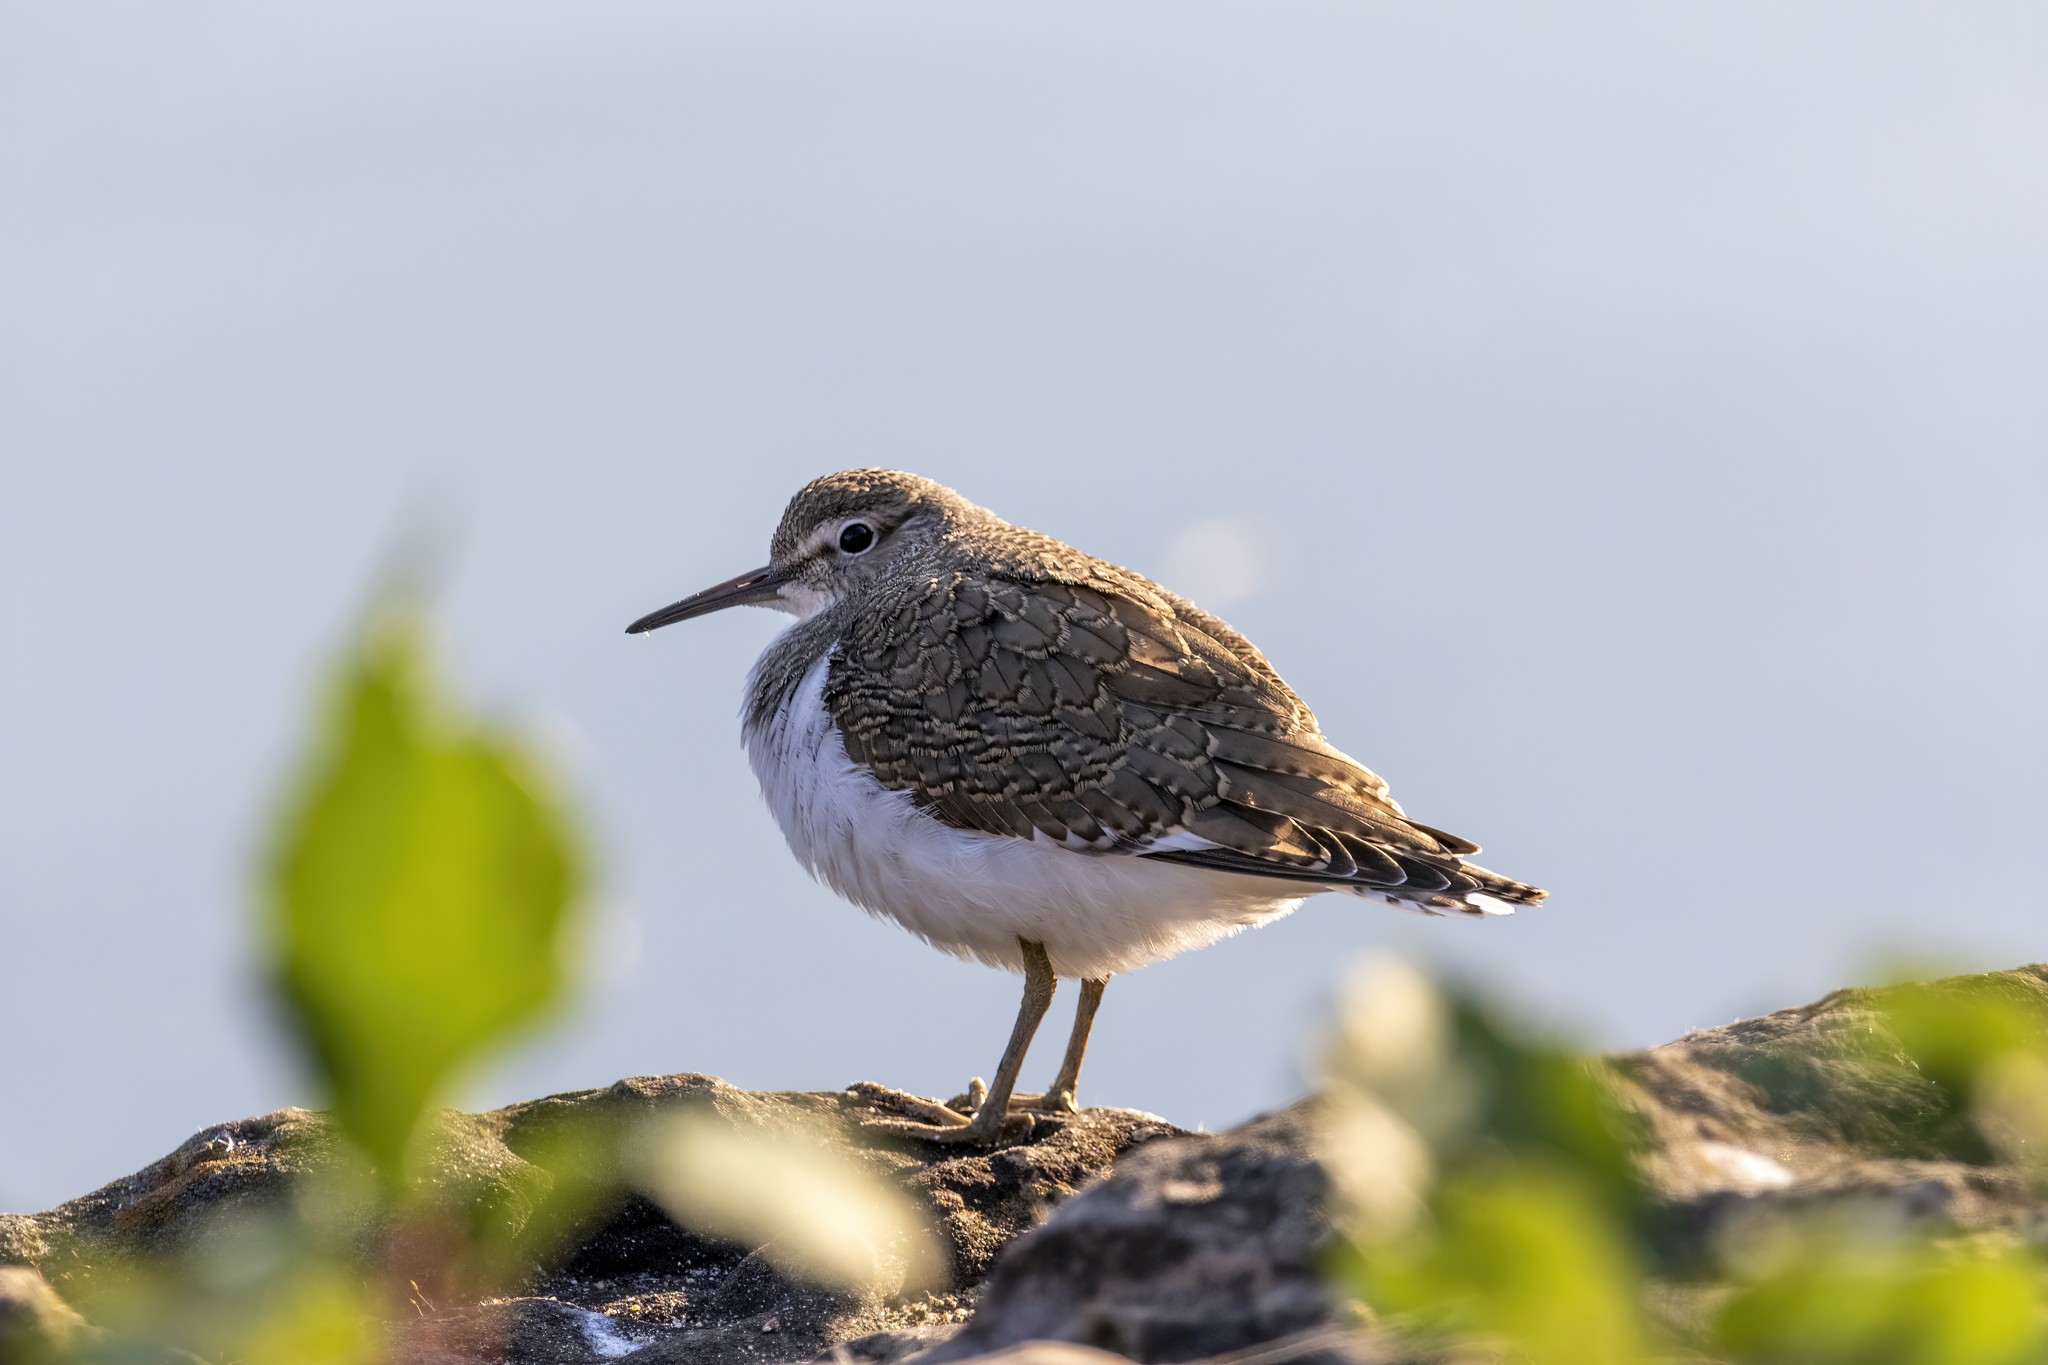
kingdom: Animalia
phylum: Chordata
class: Aves
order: Charadriiformes
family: Scolopacidae
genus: Actitis
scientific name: Actitis hypoleucos
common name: Common sandpiper
